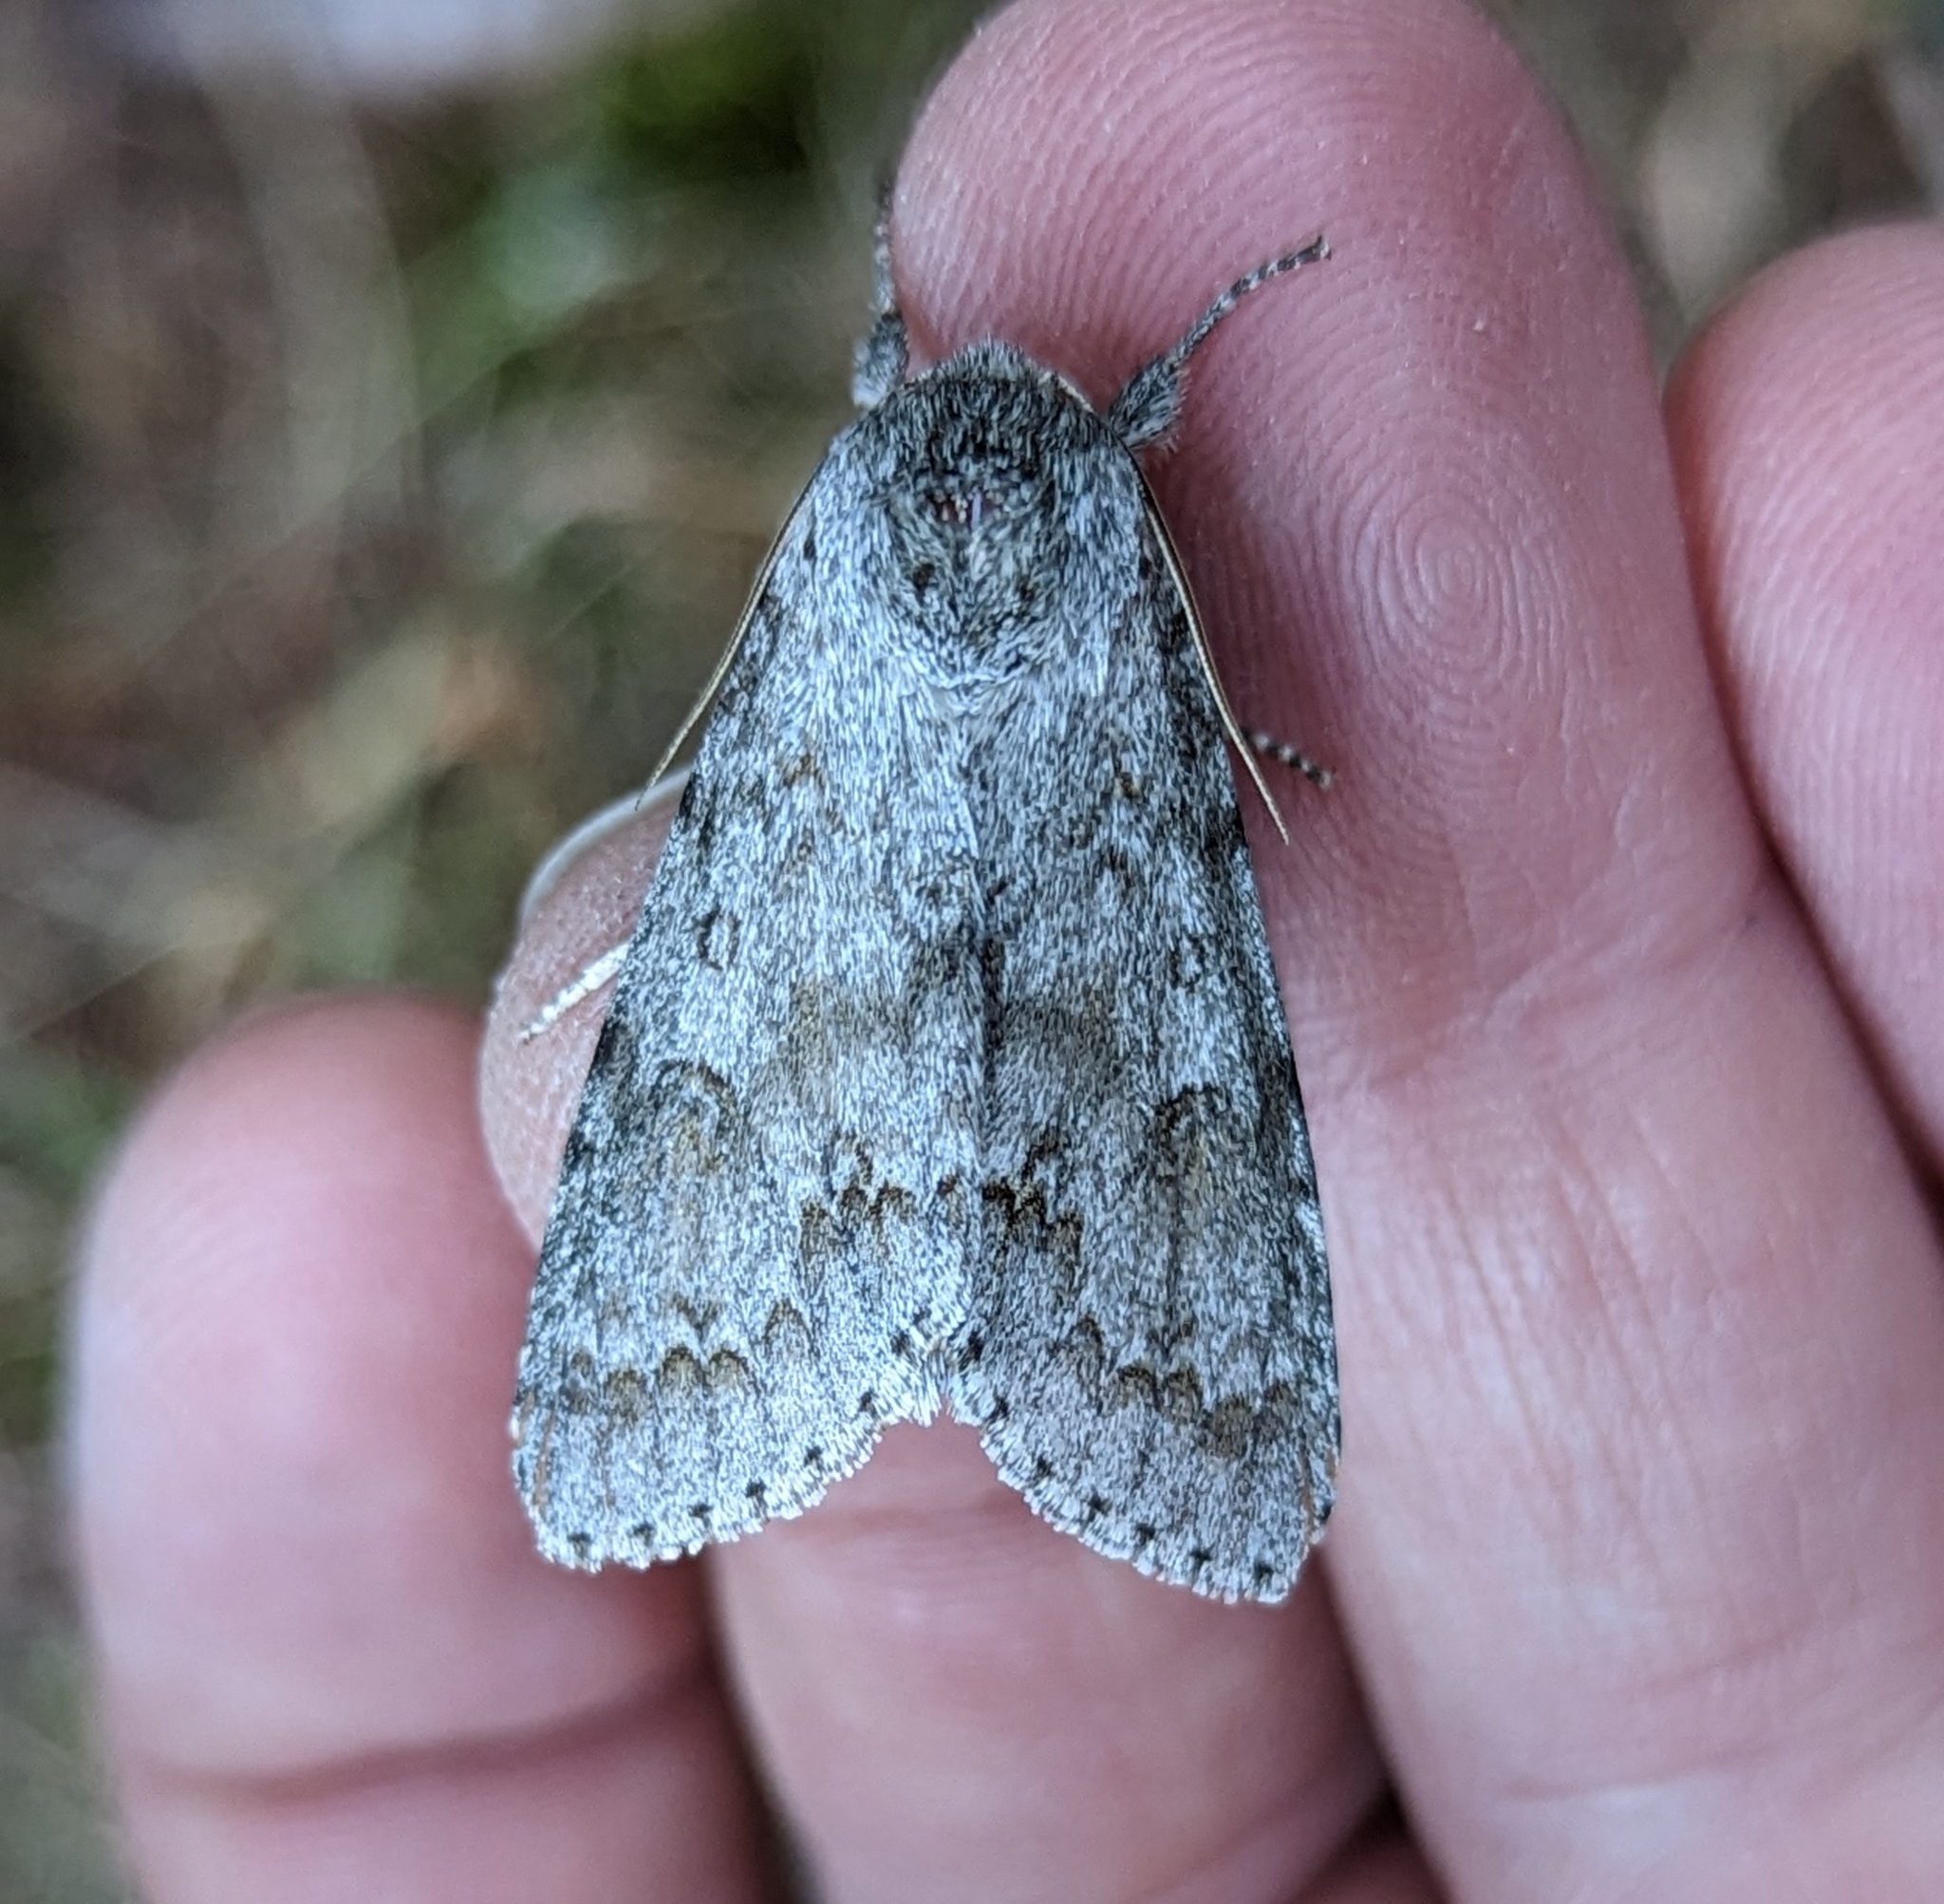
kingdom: Animalia
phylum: Arthropoda
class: Insecta
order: Lepidoptera
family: Noctuidae
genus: Acronicta
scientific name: Acronicta insita
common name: Large gray dagger
